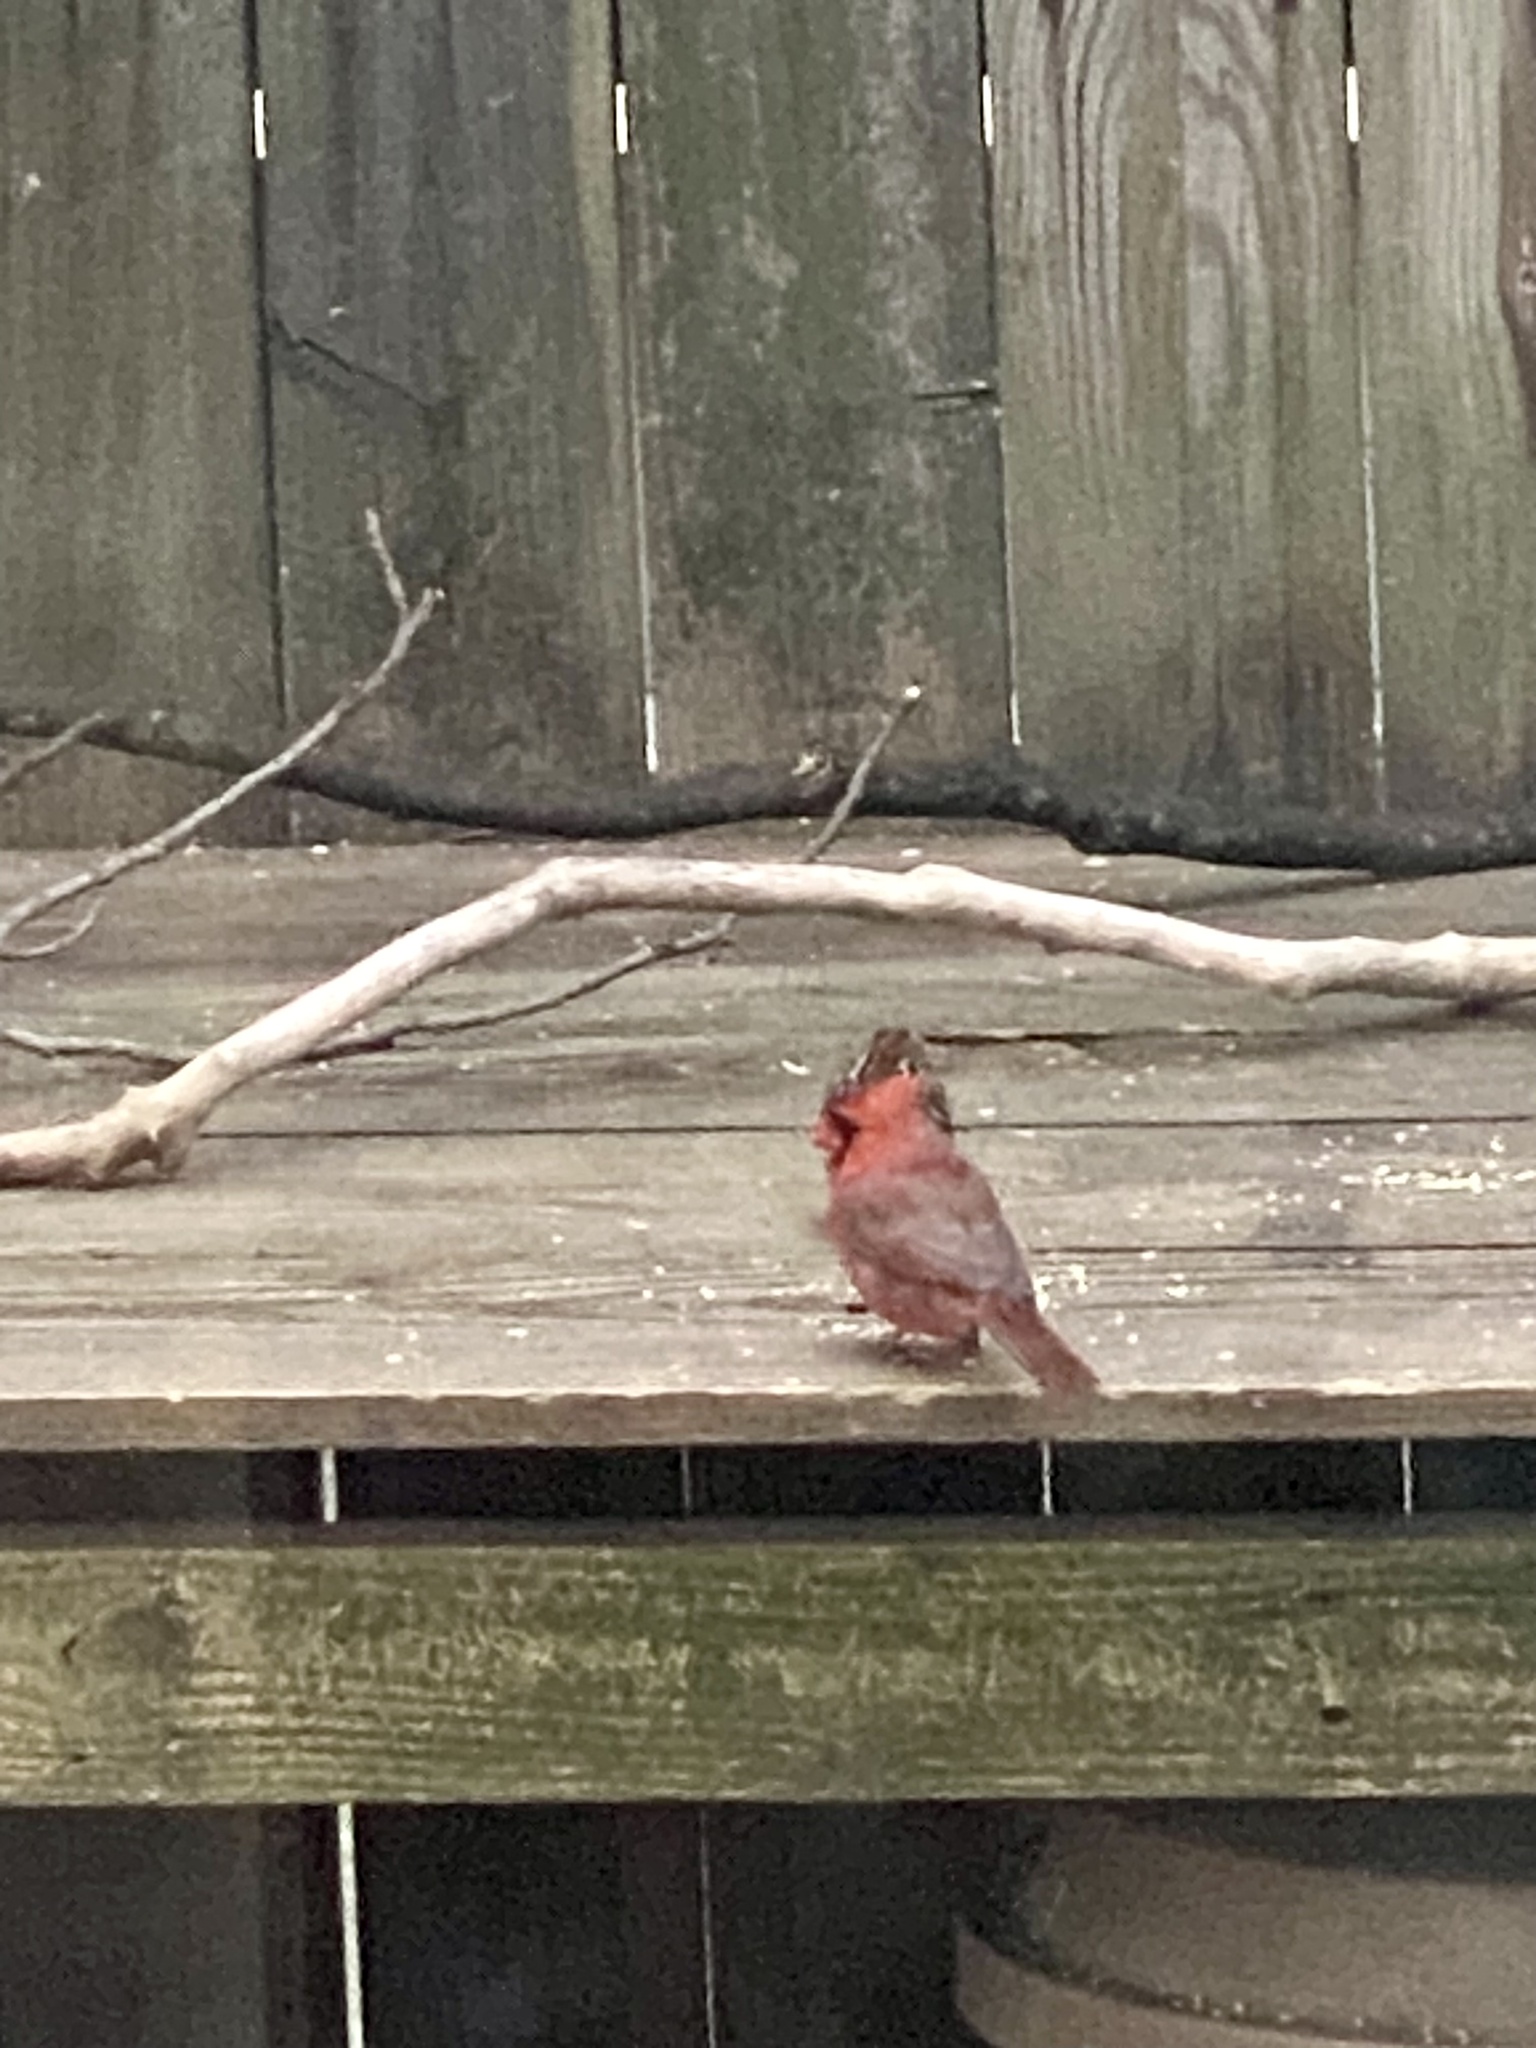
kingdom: Animalia
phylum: Chordata
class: Aves
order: Passeriformes
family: Cardinalidae
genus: Cardinalis
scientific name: Cardinalis cardinalis
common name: Northern cardinal
